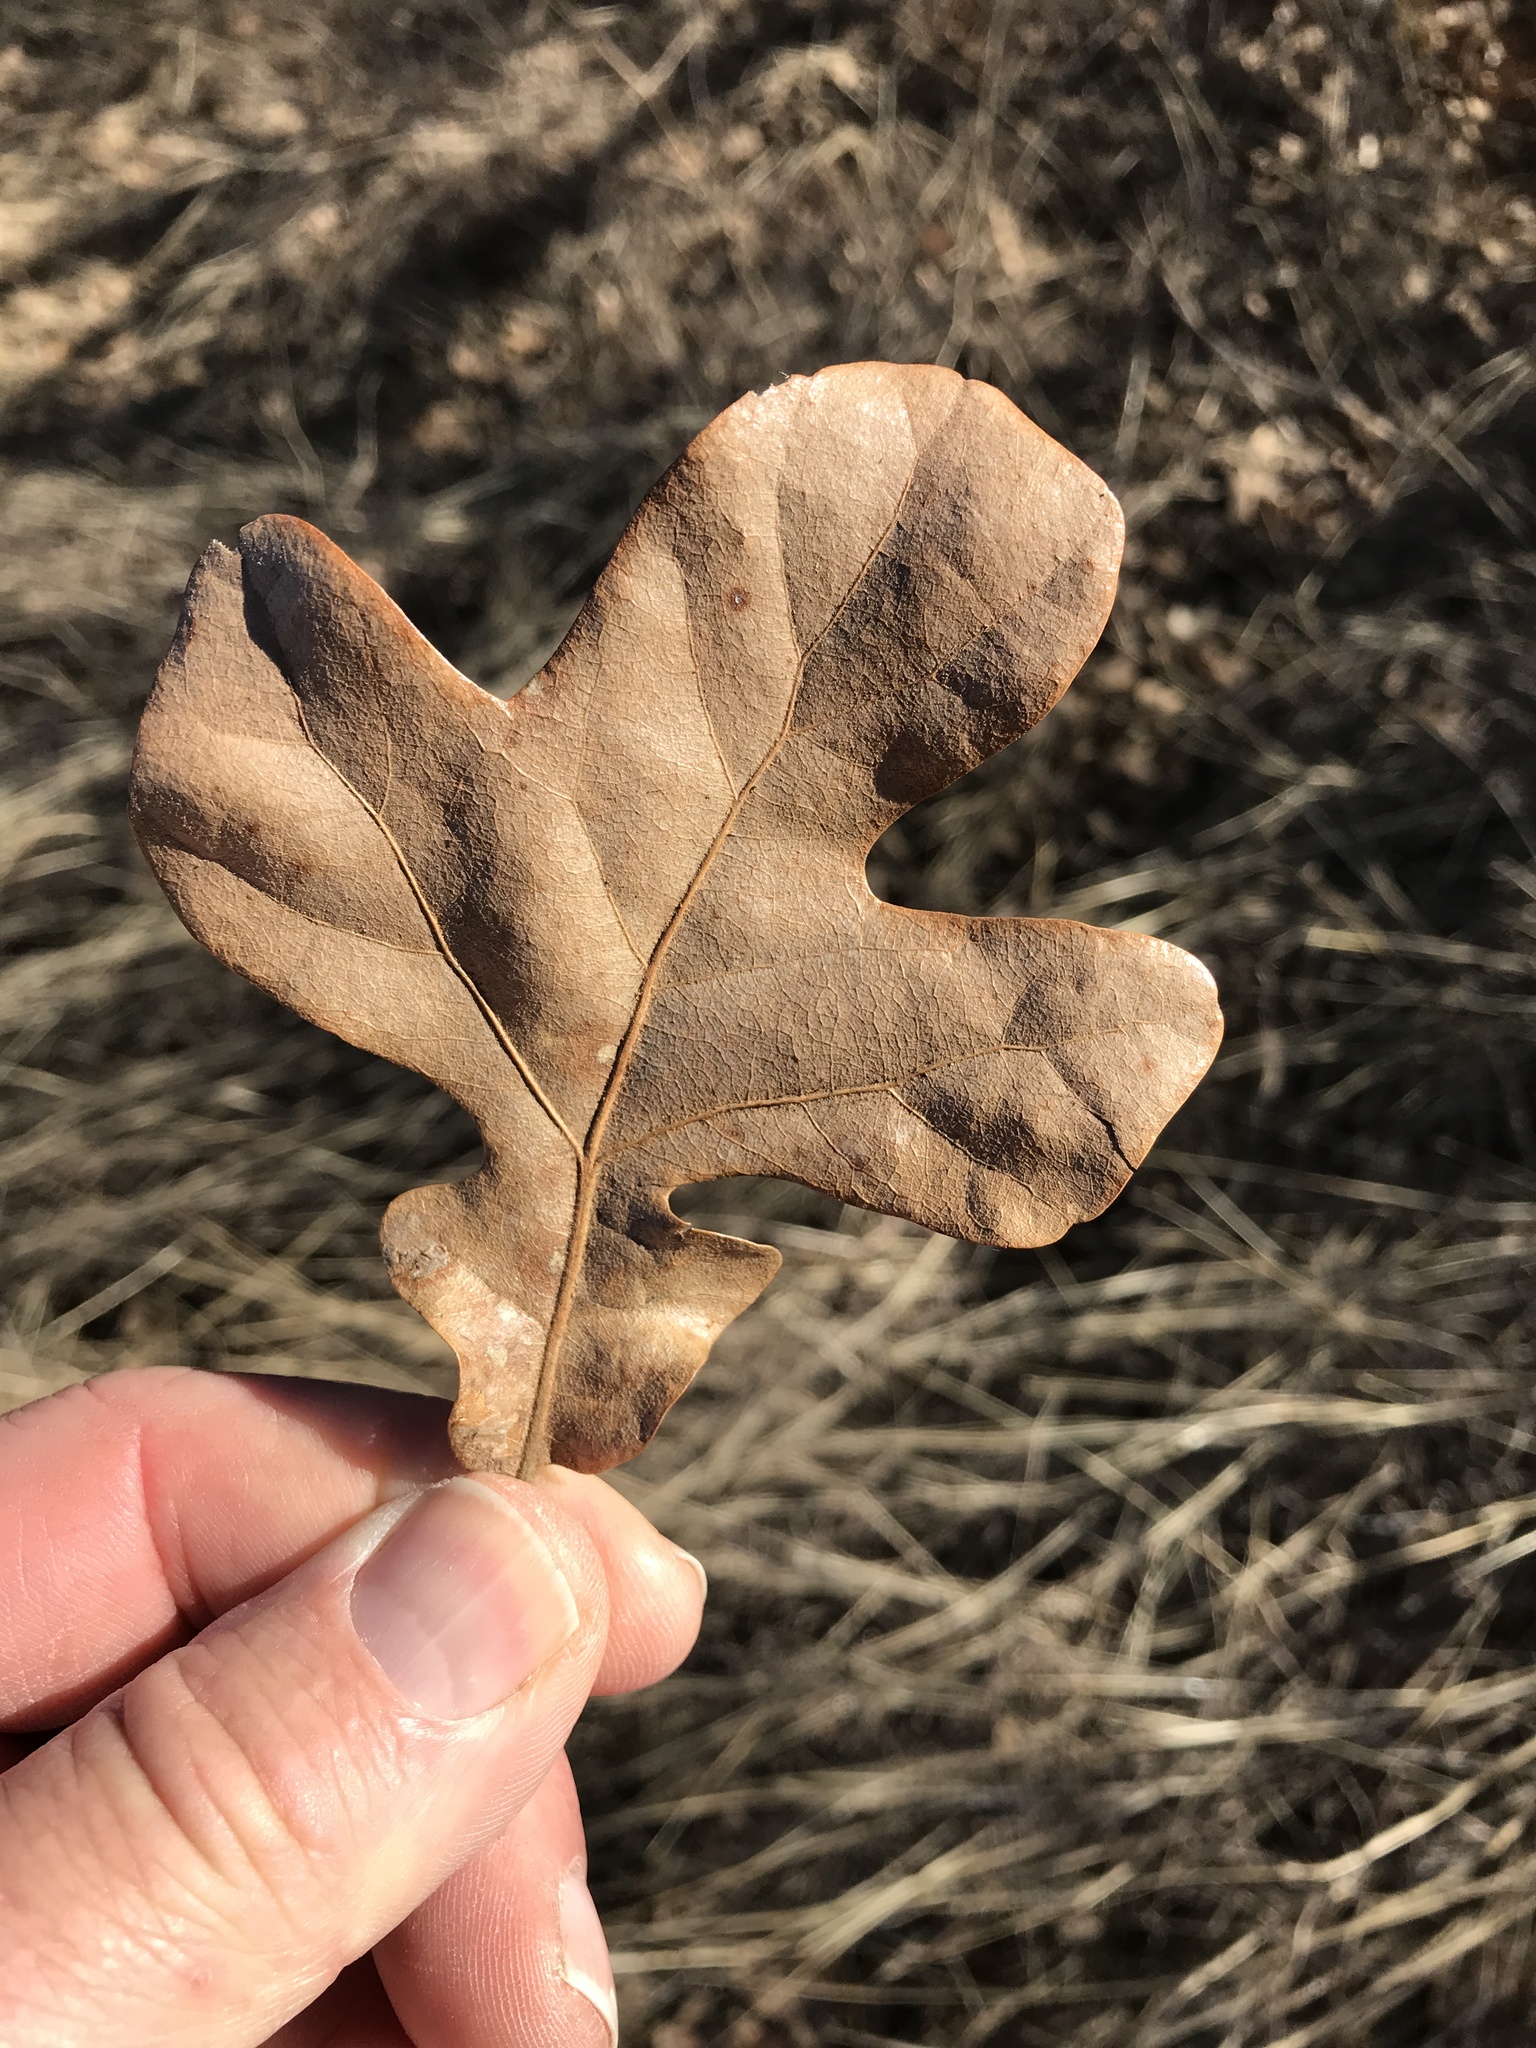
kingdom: Plantae
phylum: Tracheophyta
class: Magnoliopsida
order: Fagales
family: Fagaceae
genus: Quercus
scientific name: Quercus stellata
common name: Post oak
